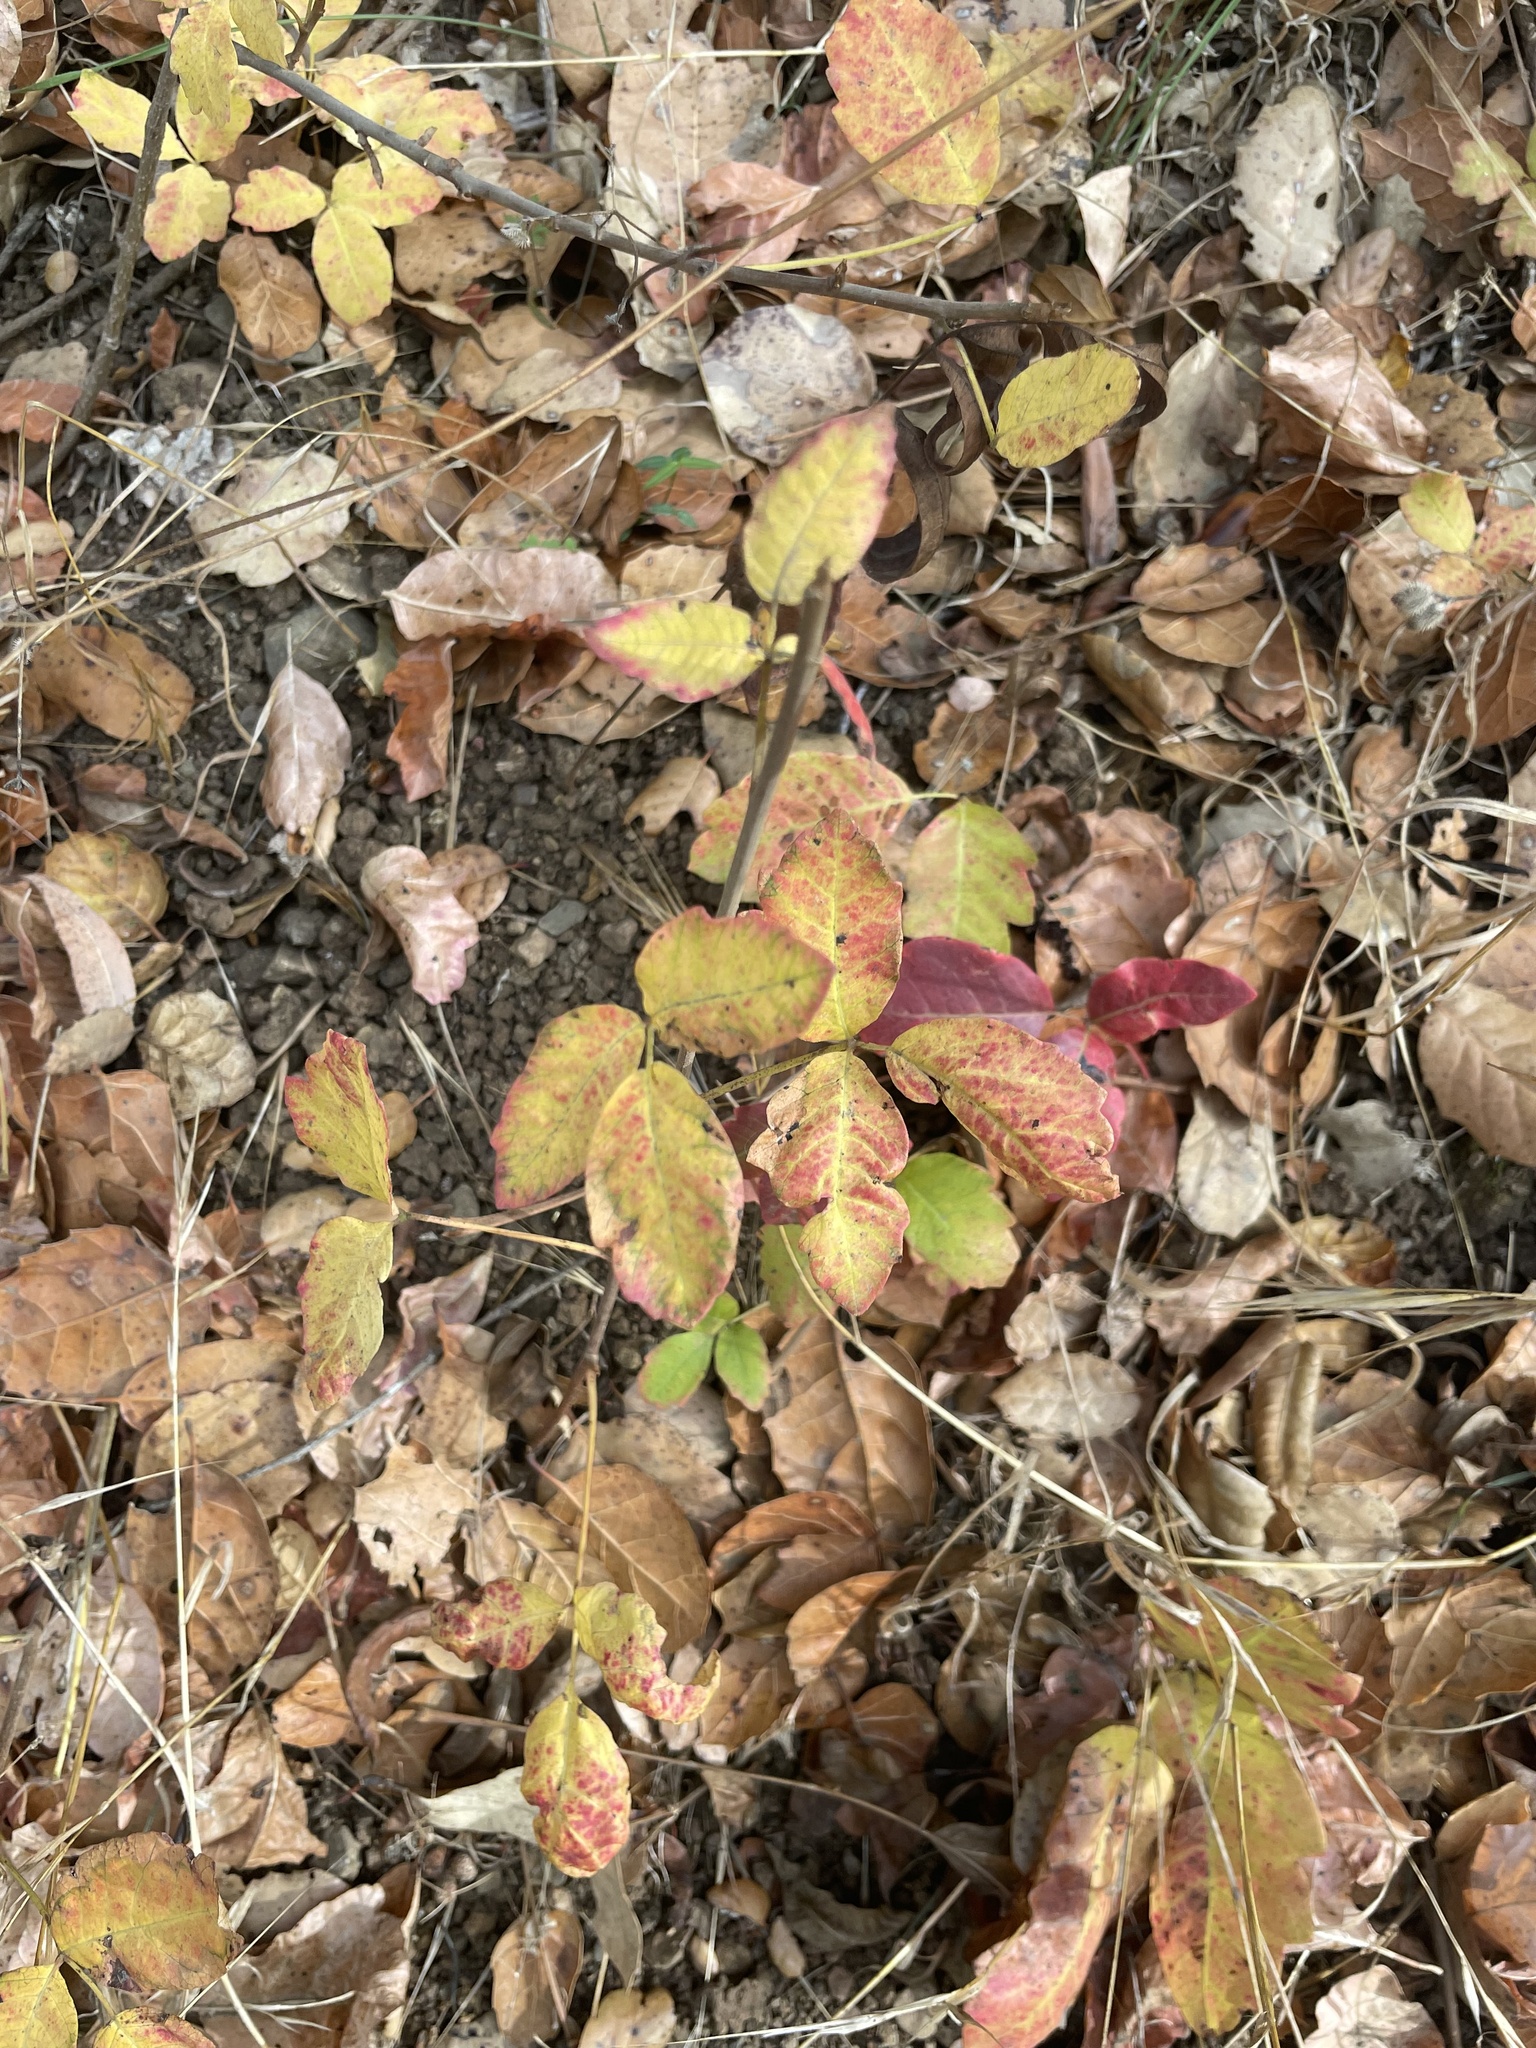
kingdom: Plantae
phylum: Tracheophyta
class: Magnoliopsida
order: Sapindales
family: Anacardiaceae
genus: Toxicodendron
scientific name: Toxicodendron diversilobum
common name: Pacific poison-oak
